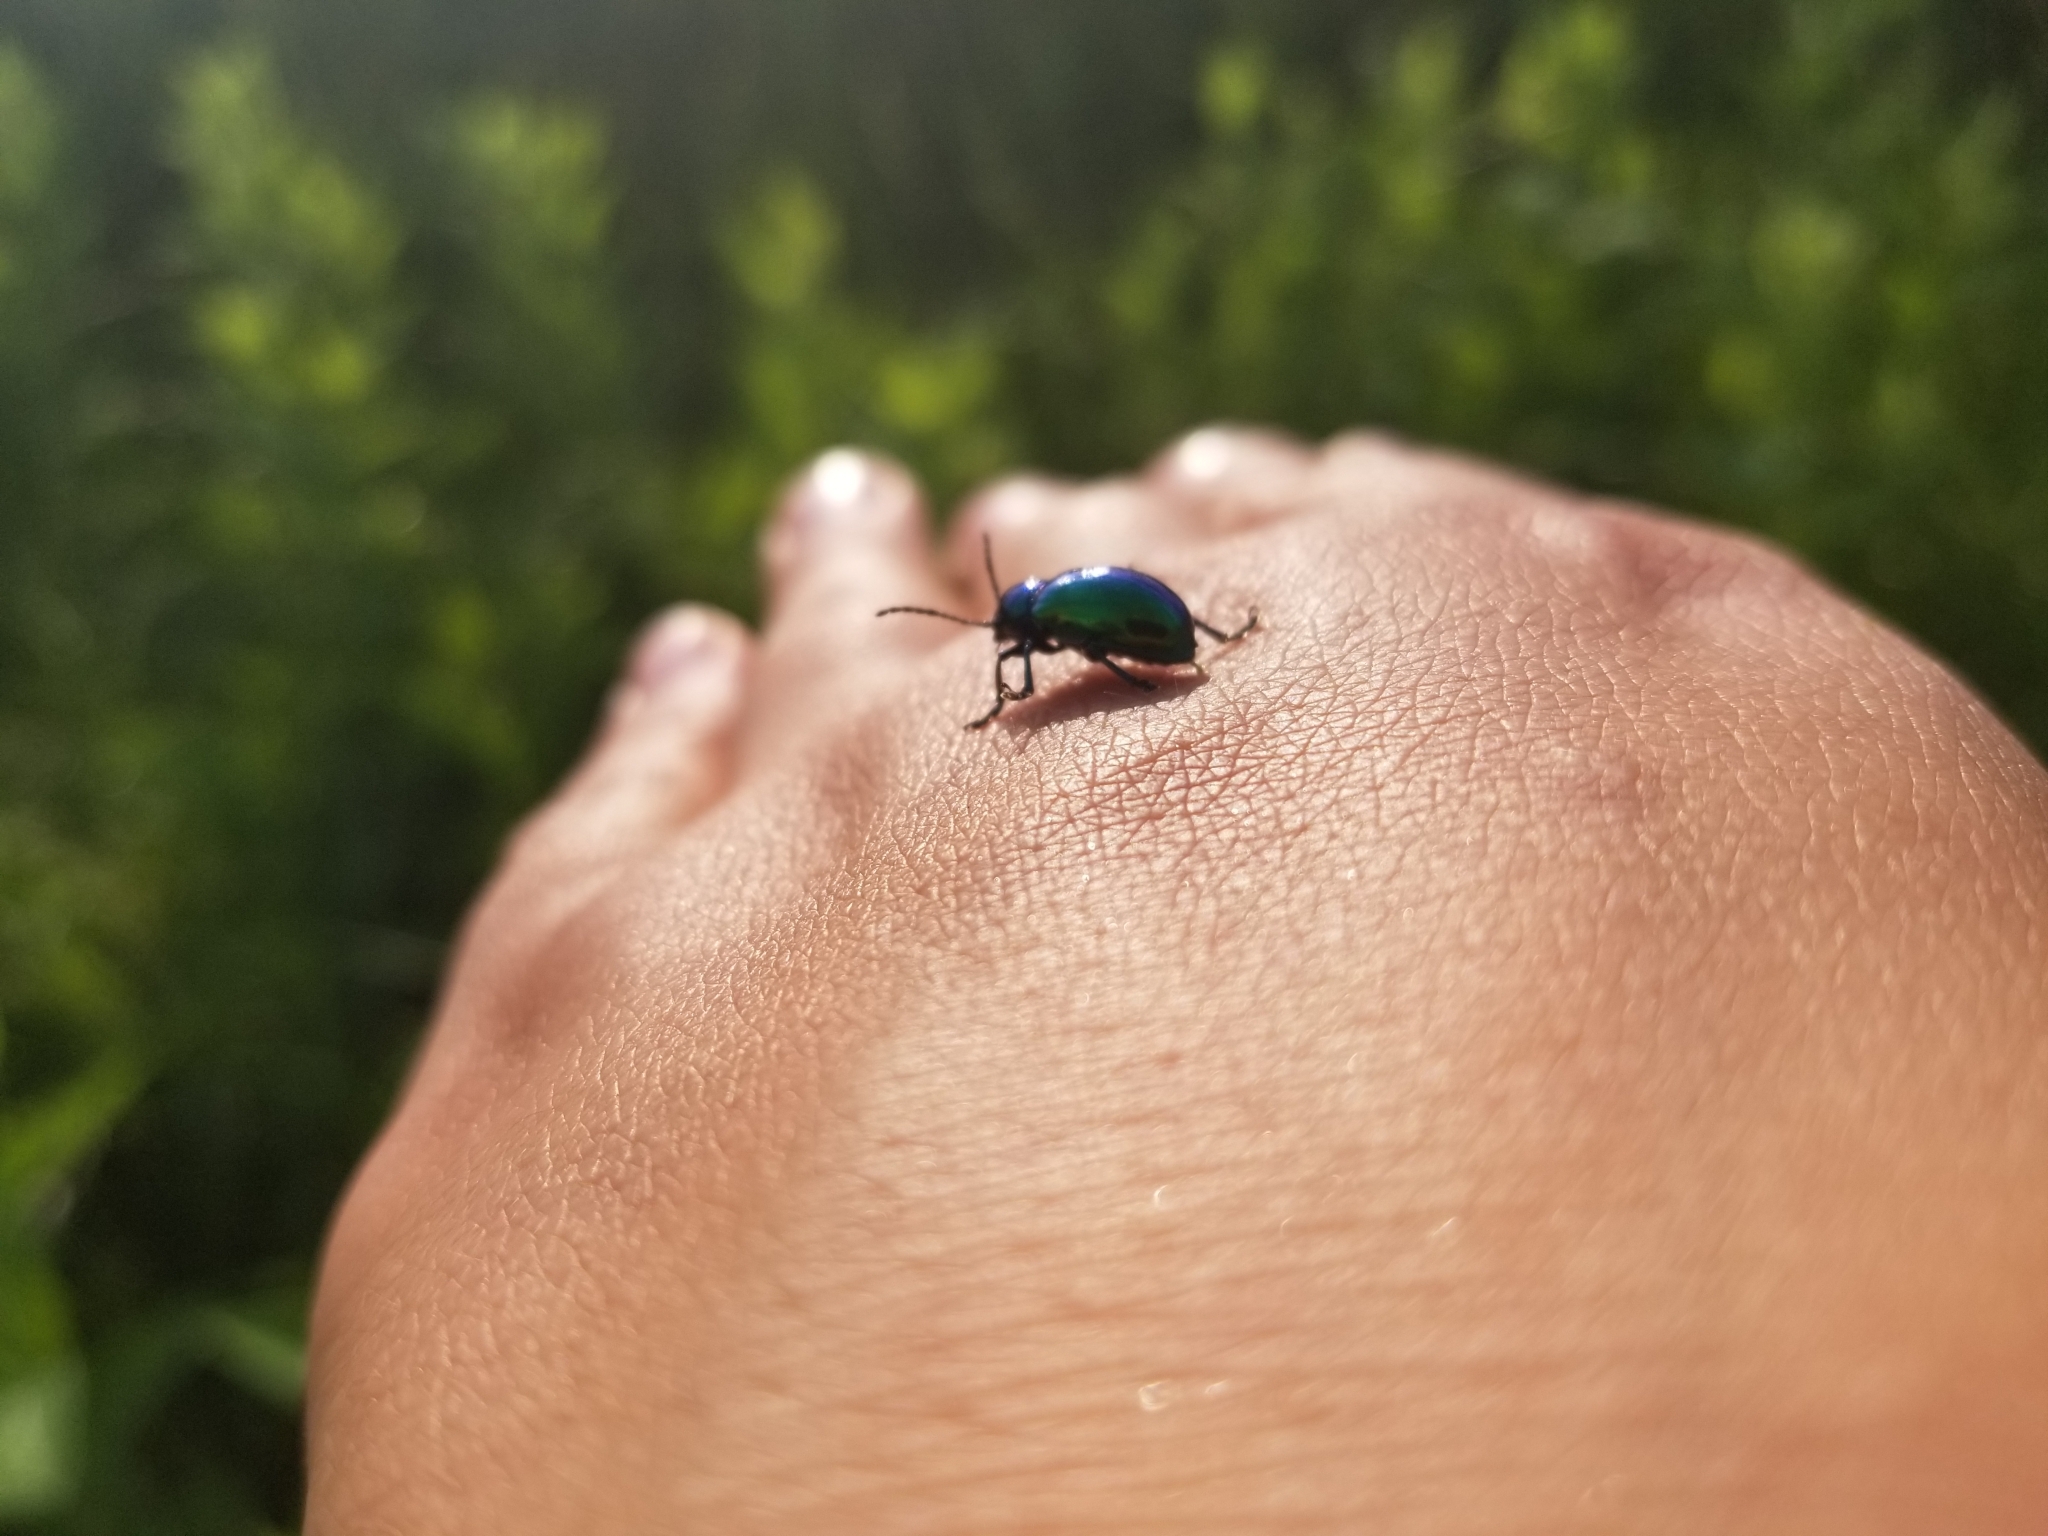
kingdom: Animalia
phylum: Arthropoda
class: Insecta
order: Coleoptera
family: Chrysomelidae
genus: Chrysochus
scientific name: Chrysochus auratus
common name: Dogbane leaf beetle
